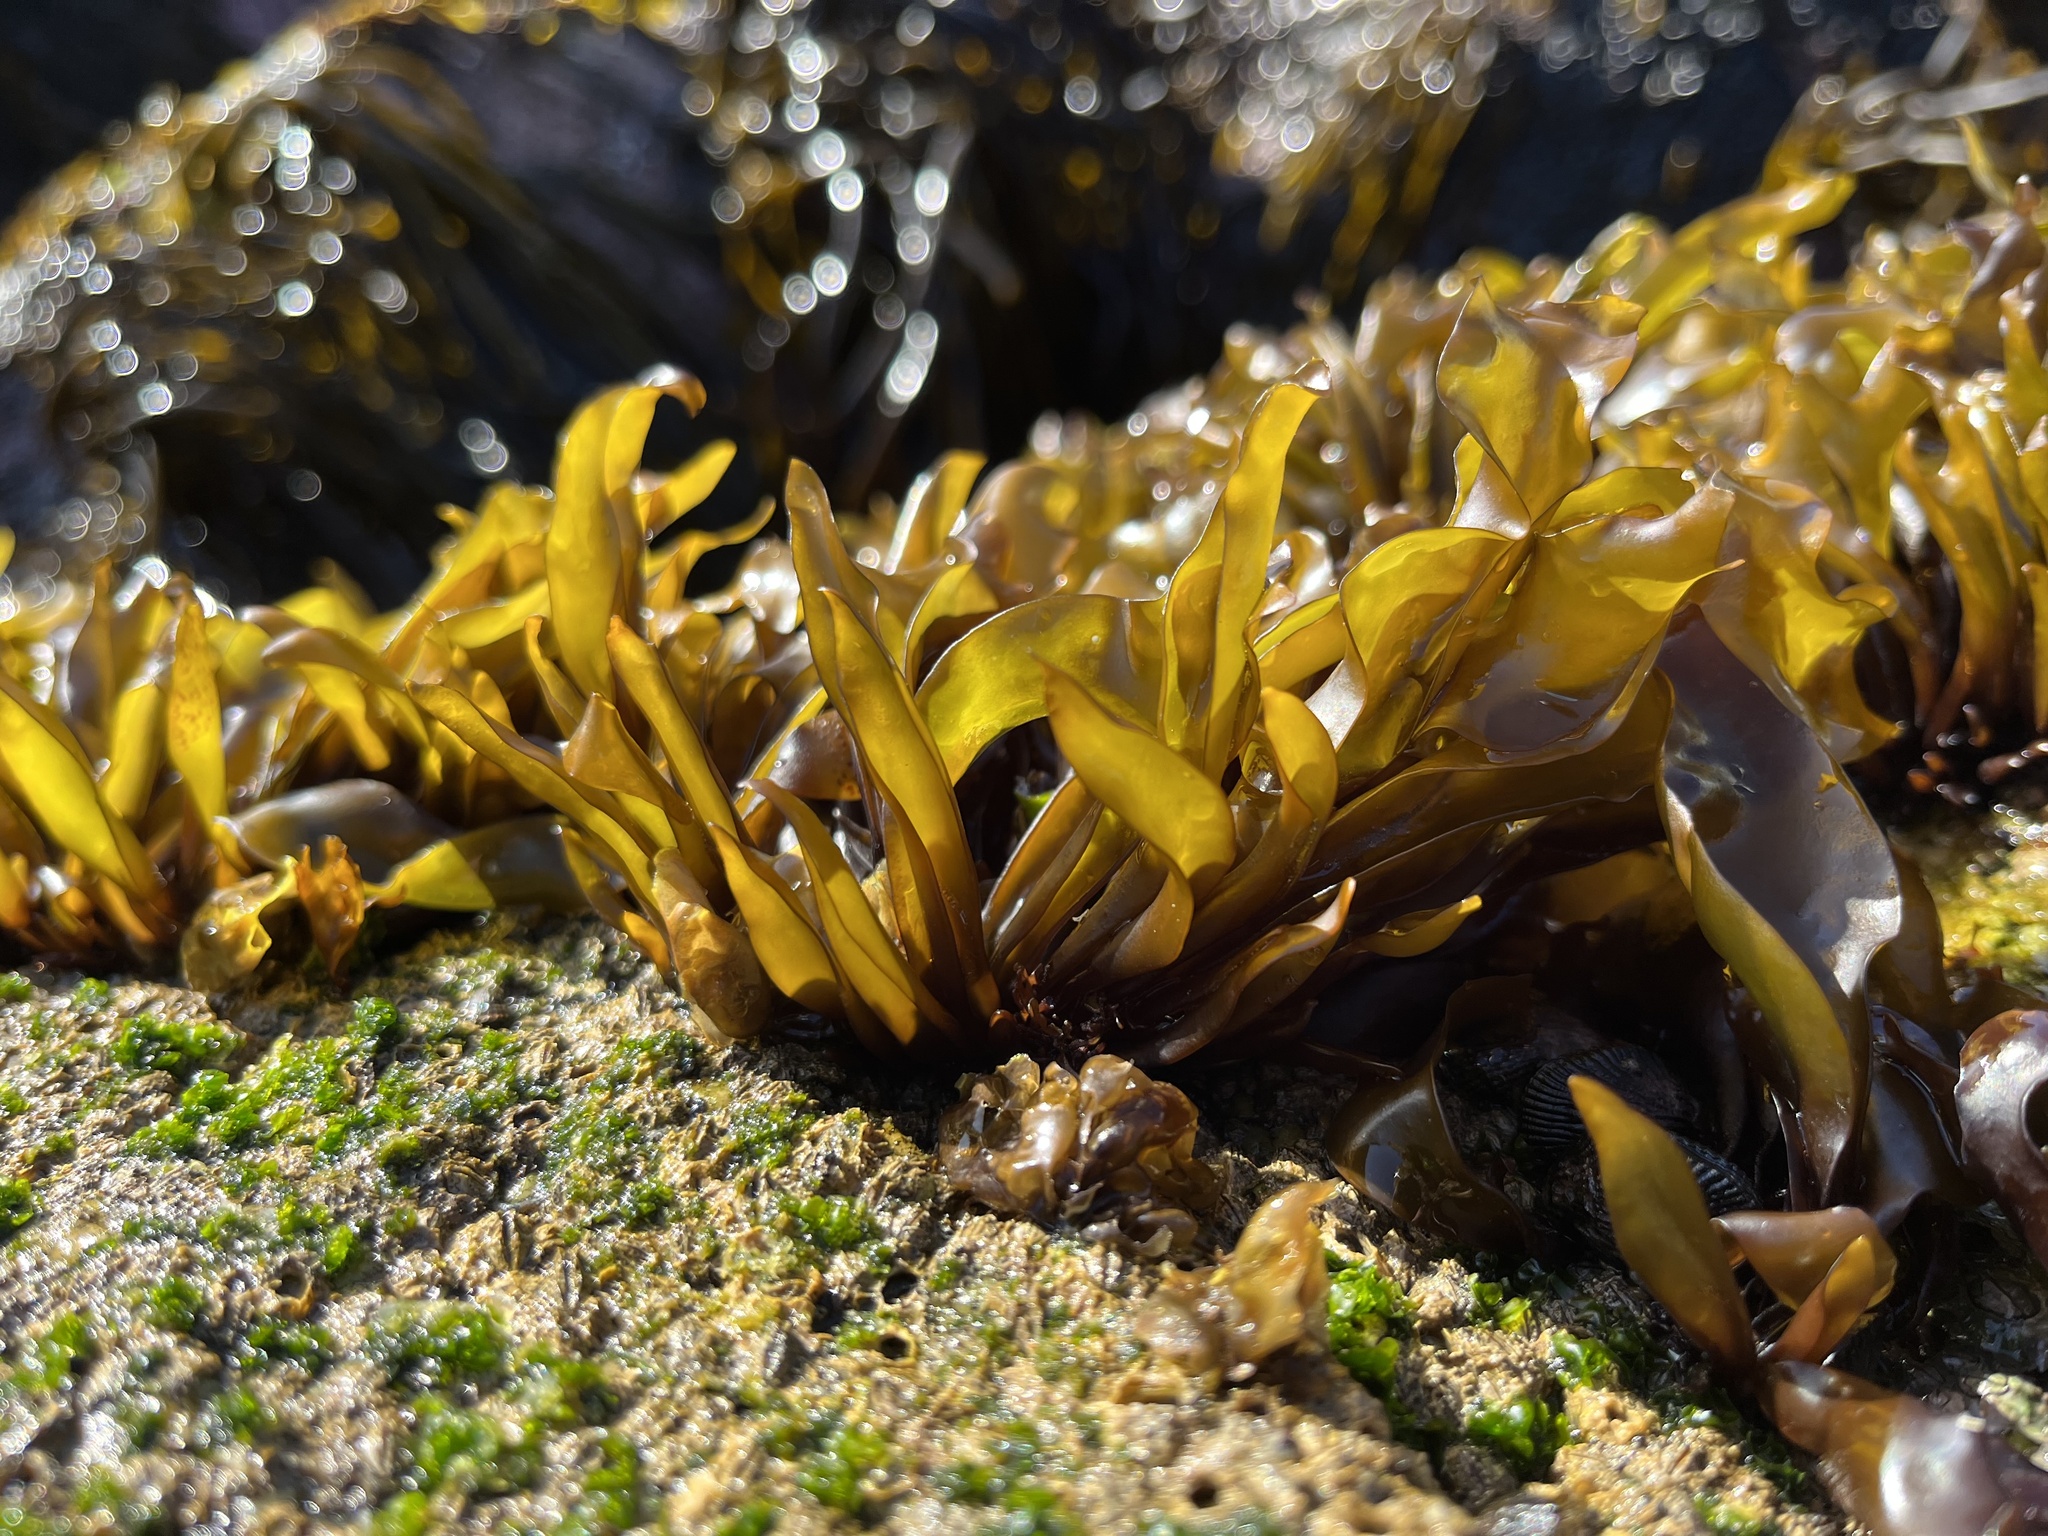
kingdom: Plantae
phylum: Rhodophyta
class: Florideophyceae
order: Gigartinales
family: Gigartinaceae
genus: Mazzaella
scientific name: Mazzaella laminarioides
